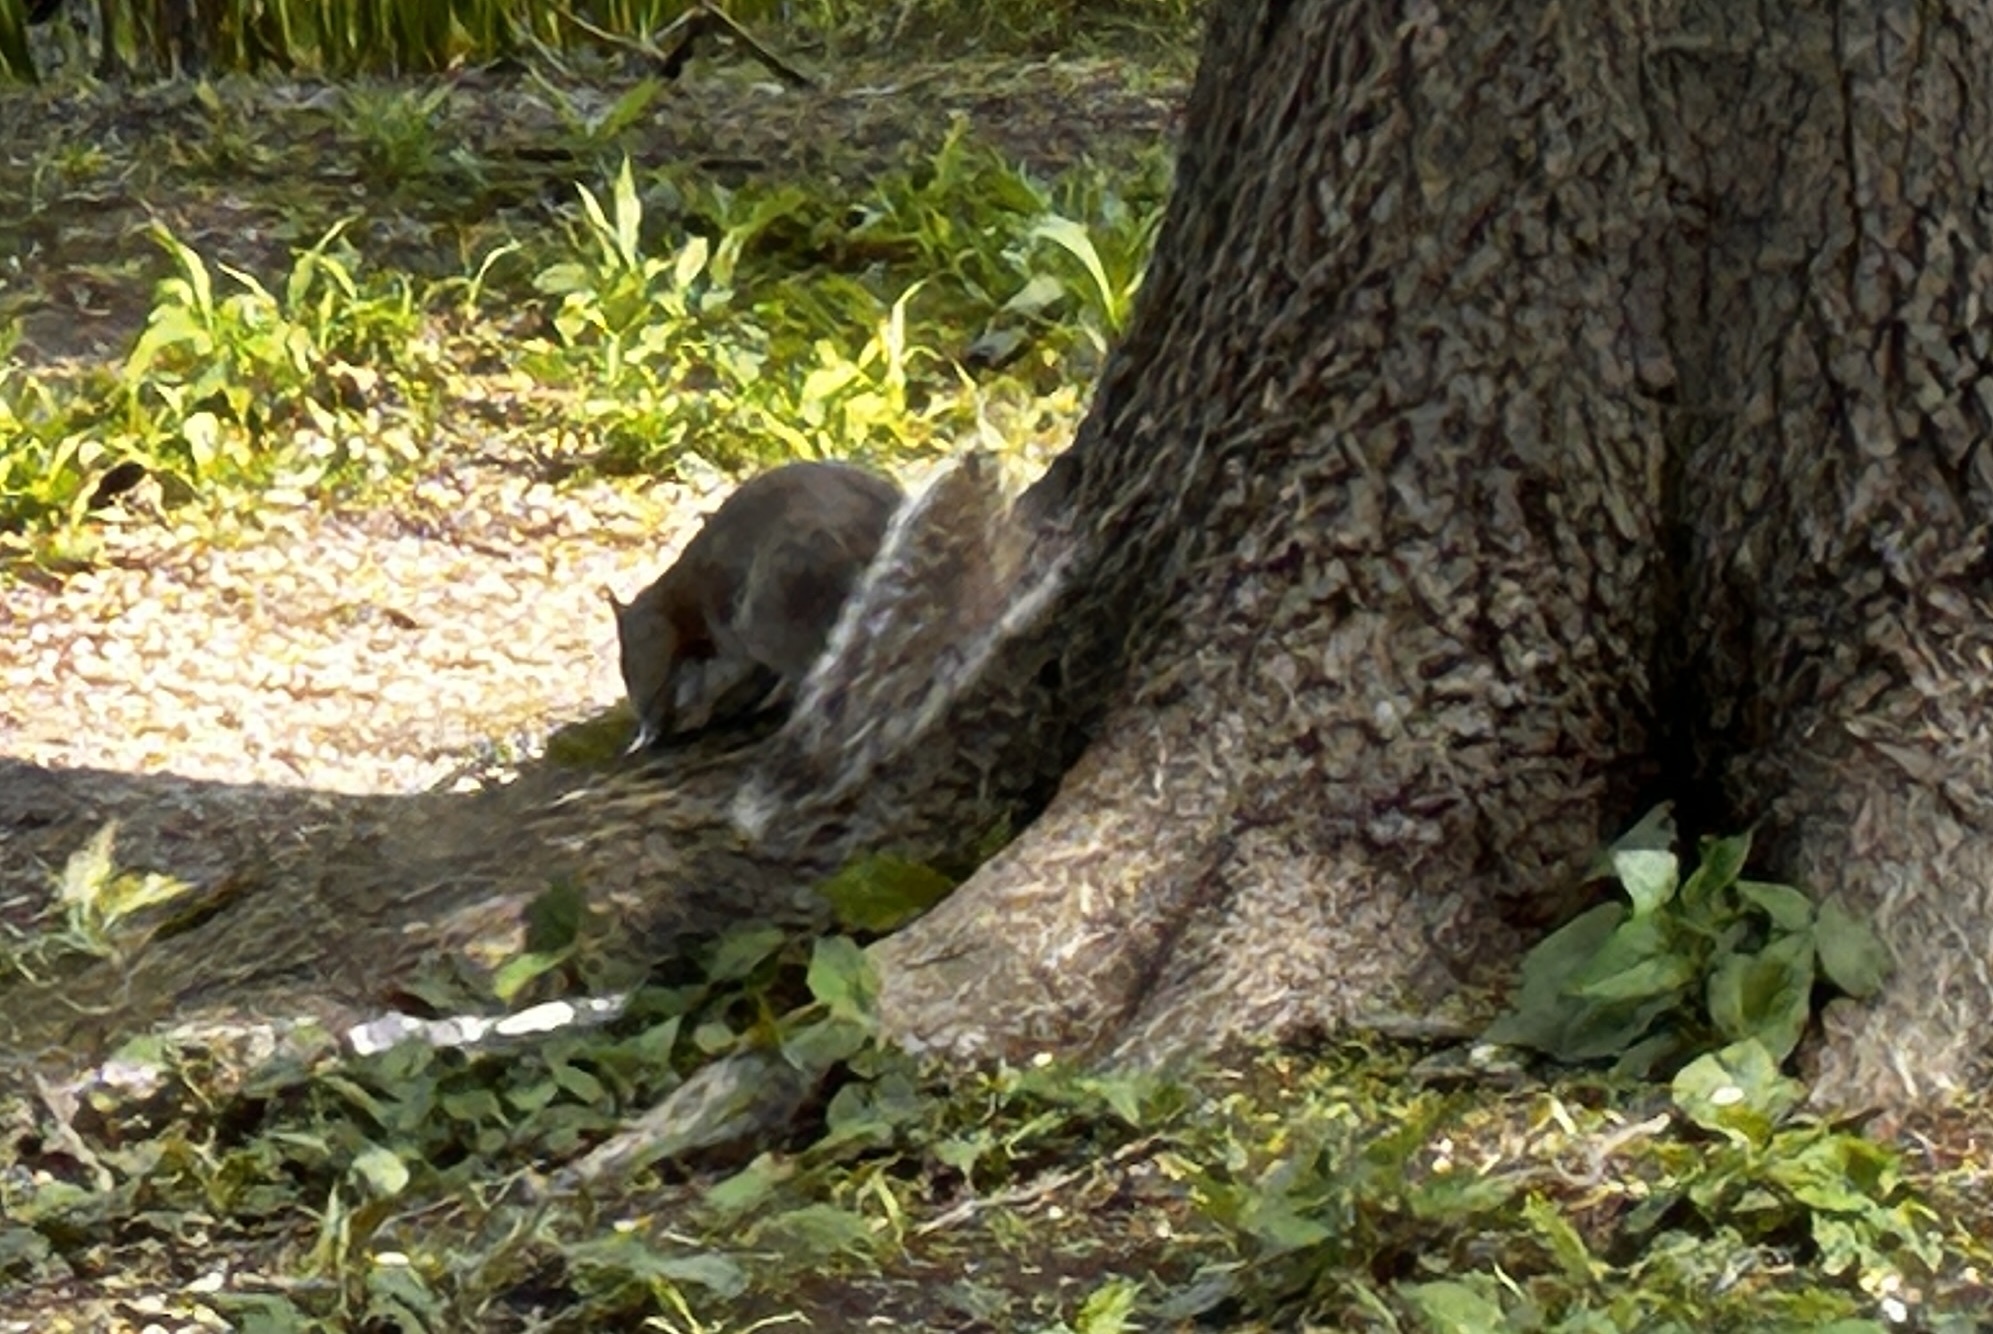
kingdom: Animalia
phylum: Chordata
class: Mammalia
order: Rodentia
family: Sciuridae
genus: Sciurus
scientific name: Sciurus carolinensis
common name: Eastern gray squirrel
